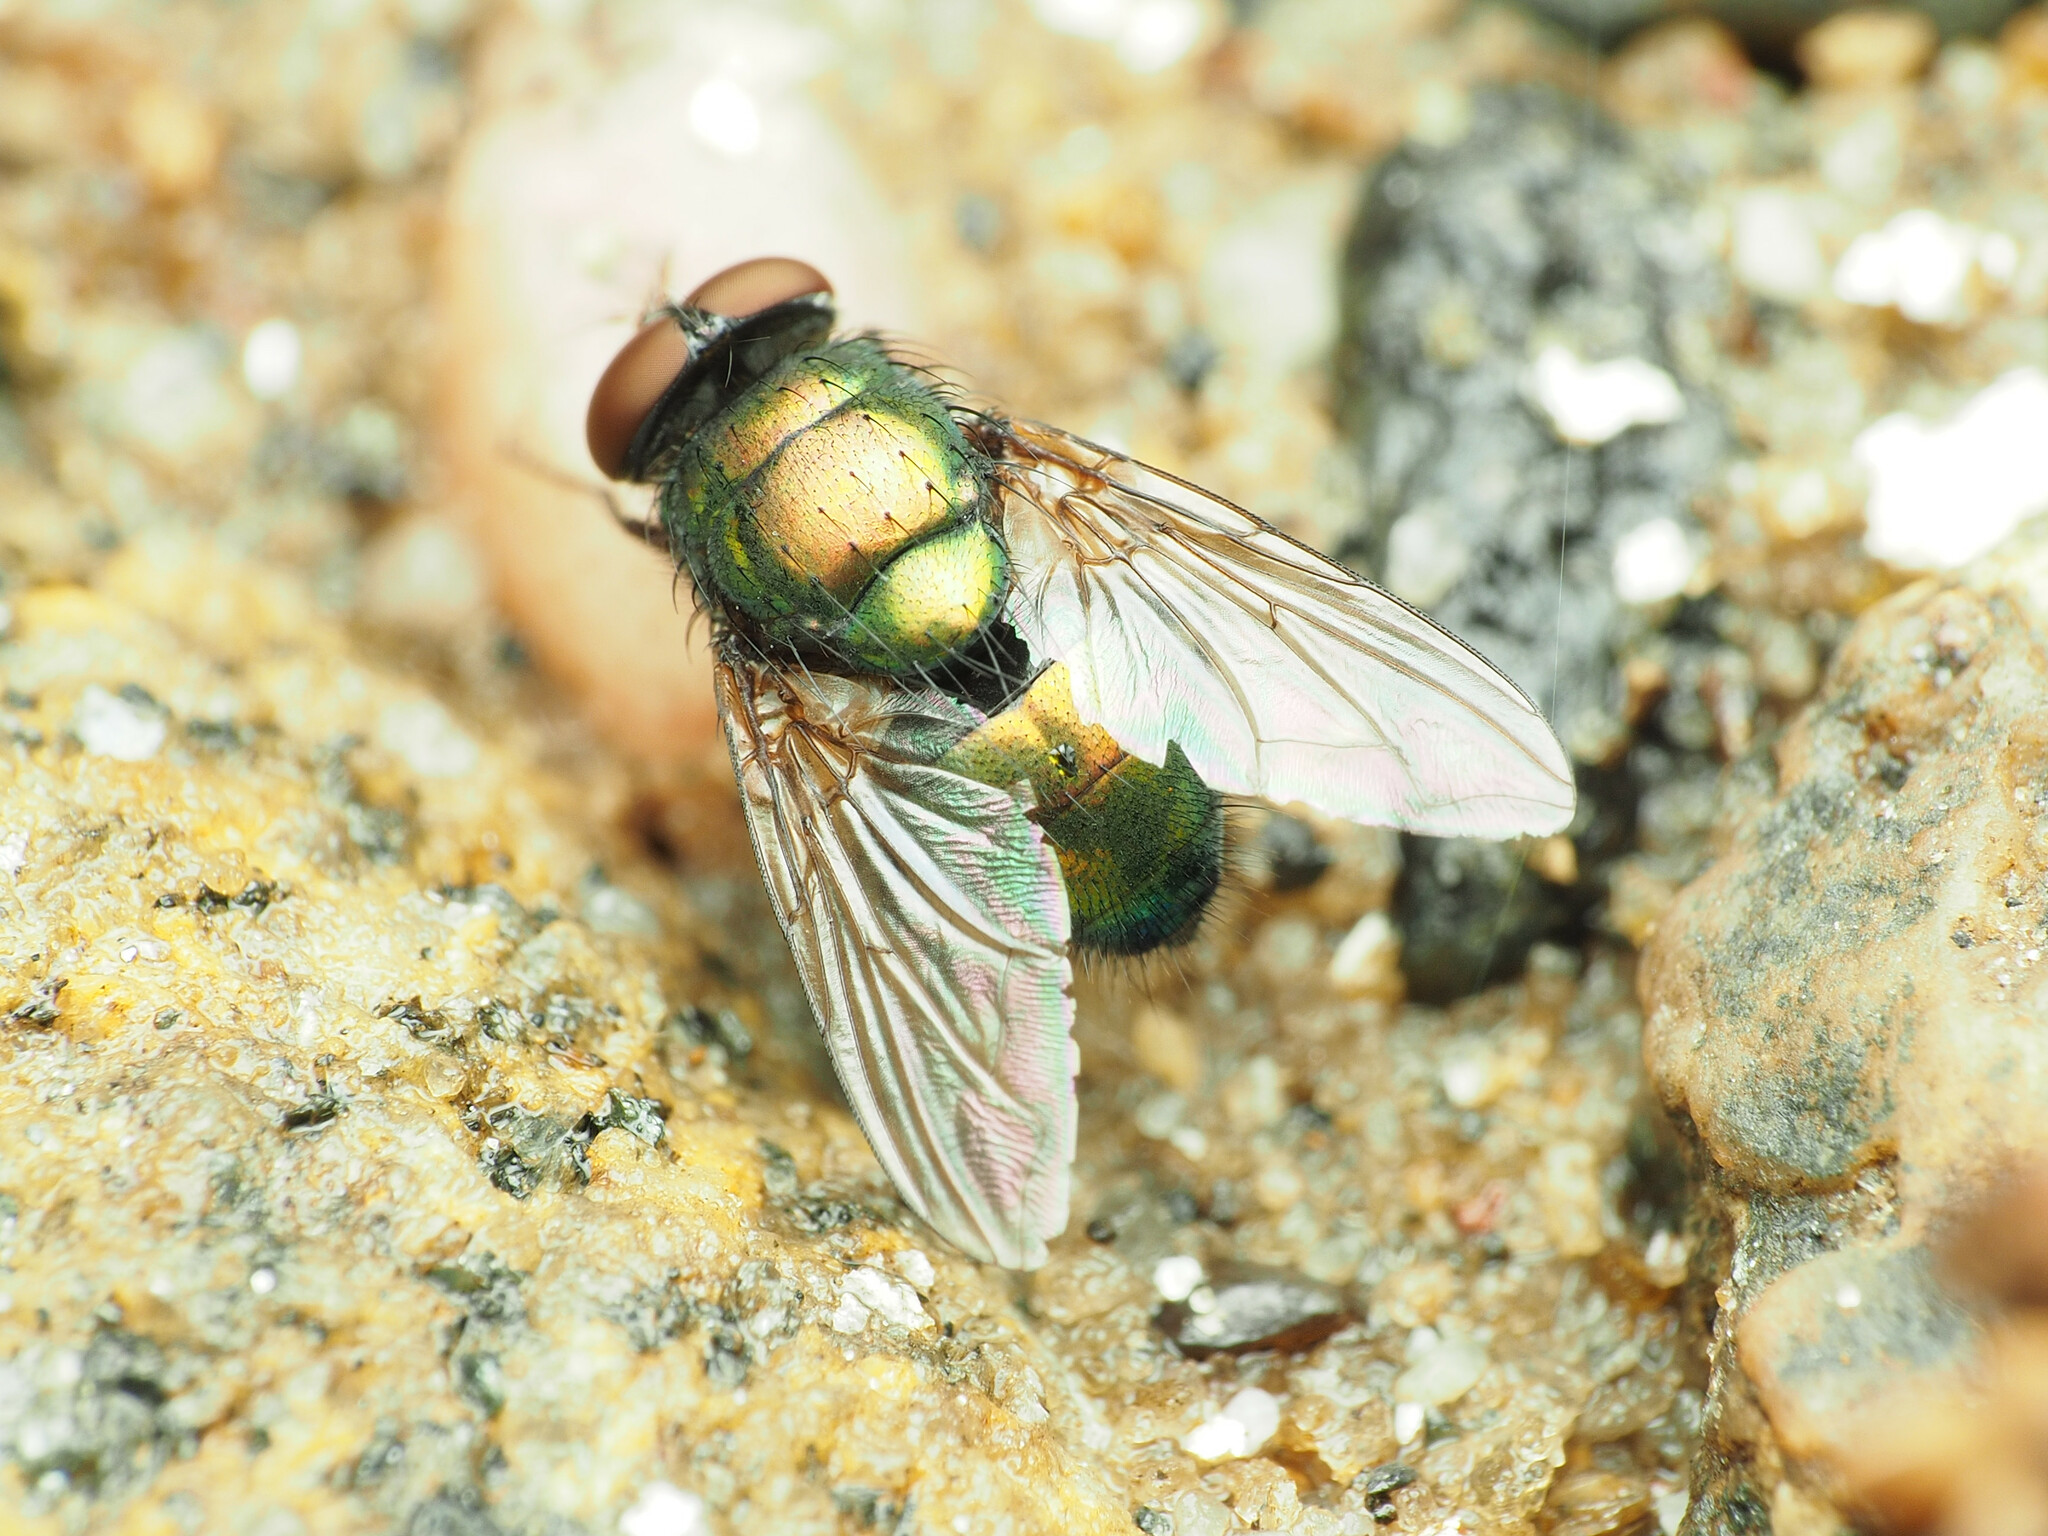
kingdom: Animalia
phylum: Arthropoda
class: Insecta
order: Diptera
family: Calliphoridae
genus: Lucilia
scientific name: Lucilia caeruleiviridis
